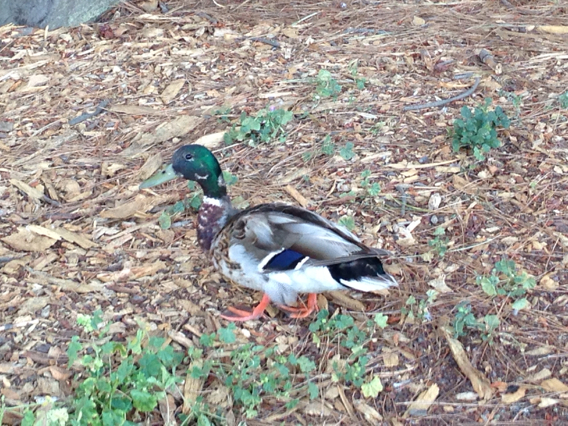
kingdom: Animalia
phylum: Chordata
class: Aves
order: Anseriformes
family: Anatidae
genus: Anas
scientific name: Anas platyrhynchos
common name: Mallard
